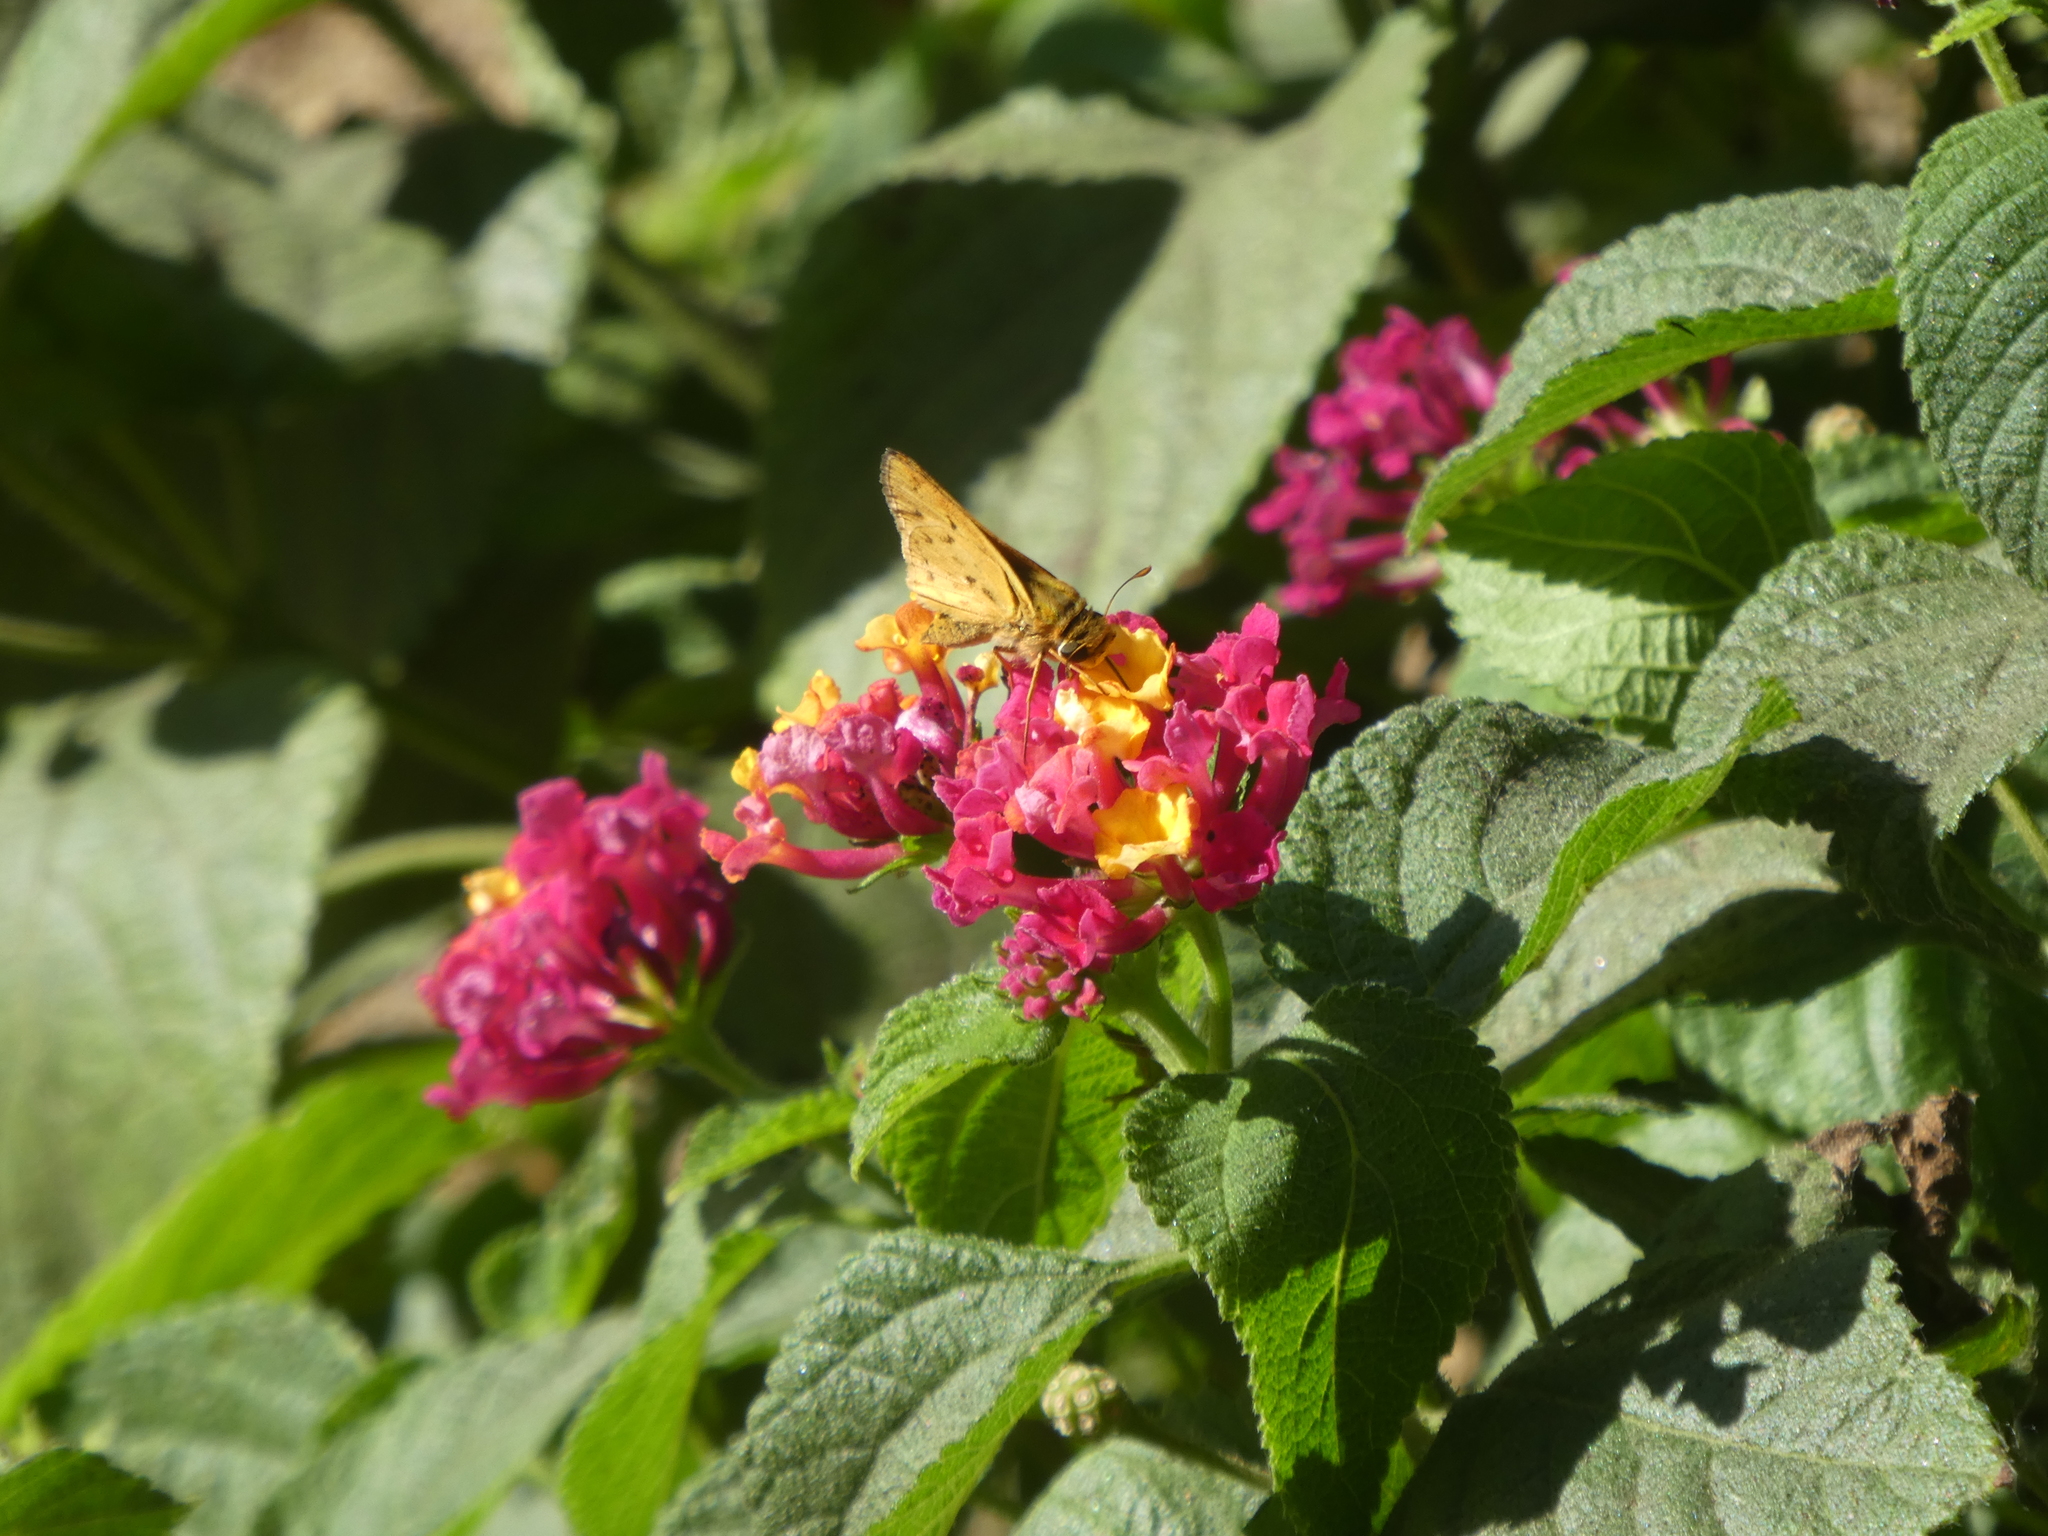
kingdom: Animalia
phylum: Arthropoda
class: Insecta
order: Lepidoptera
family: Hesperiidae
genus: Hylephila
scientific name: Hylephila phyleus
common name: Fiery skipper
